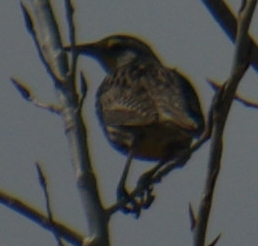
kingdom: Animalia
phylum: Chordata
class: Aves
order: Passeriformes
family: Icteridae
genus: Sturnella
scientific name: Sturnella neglecta
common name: Western meadowlark
